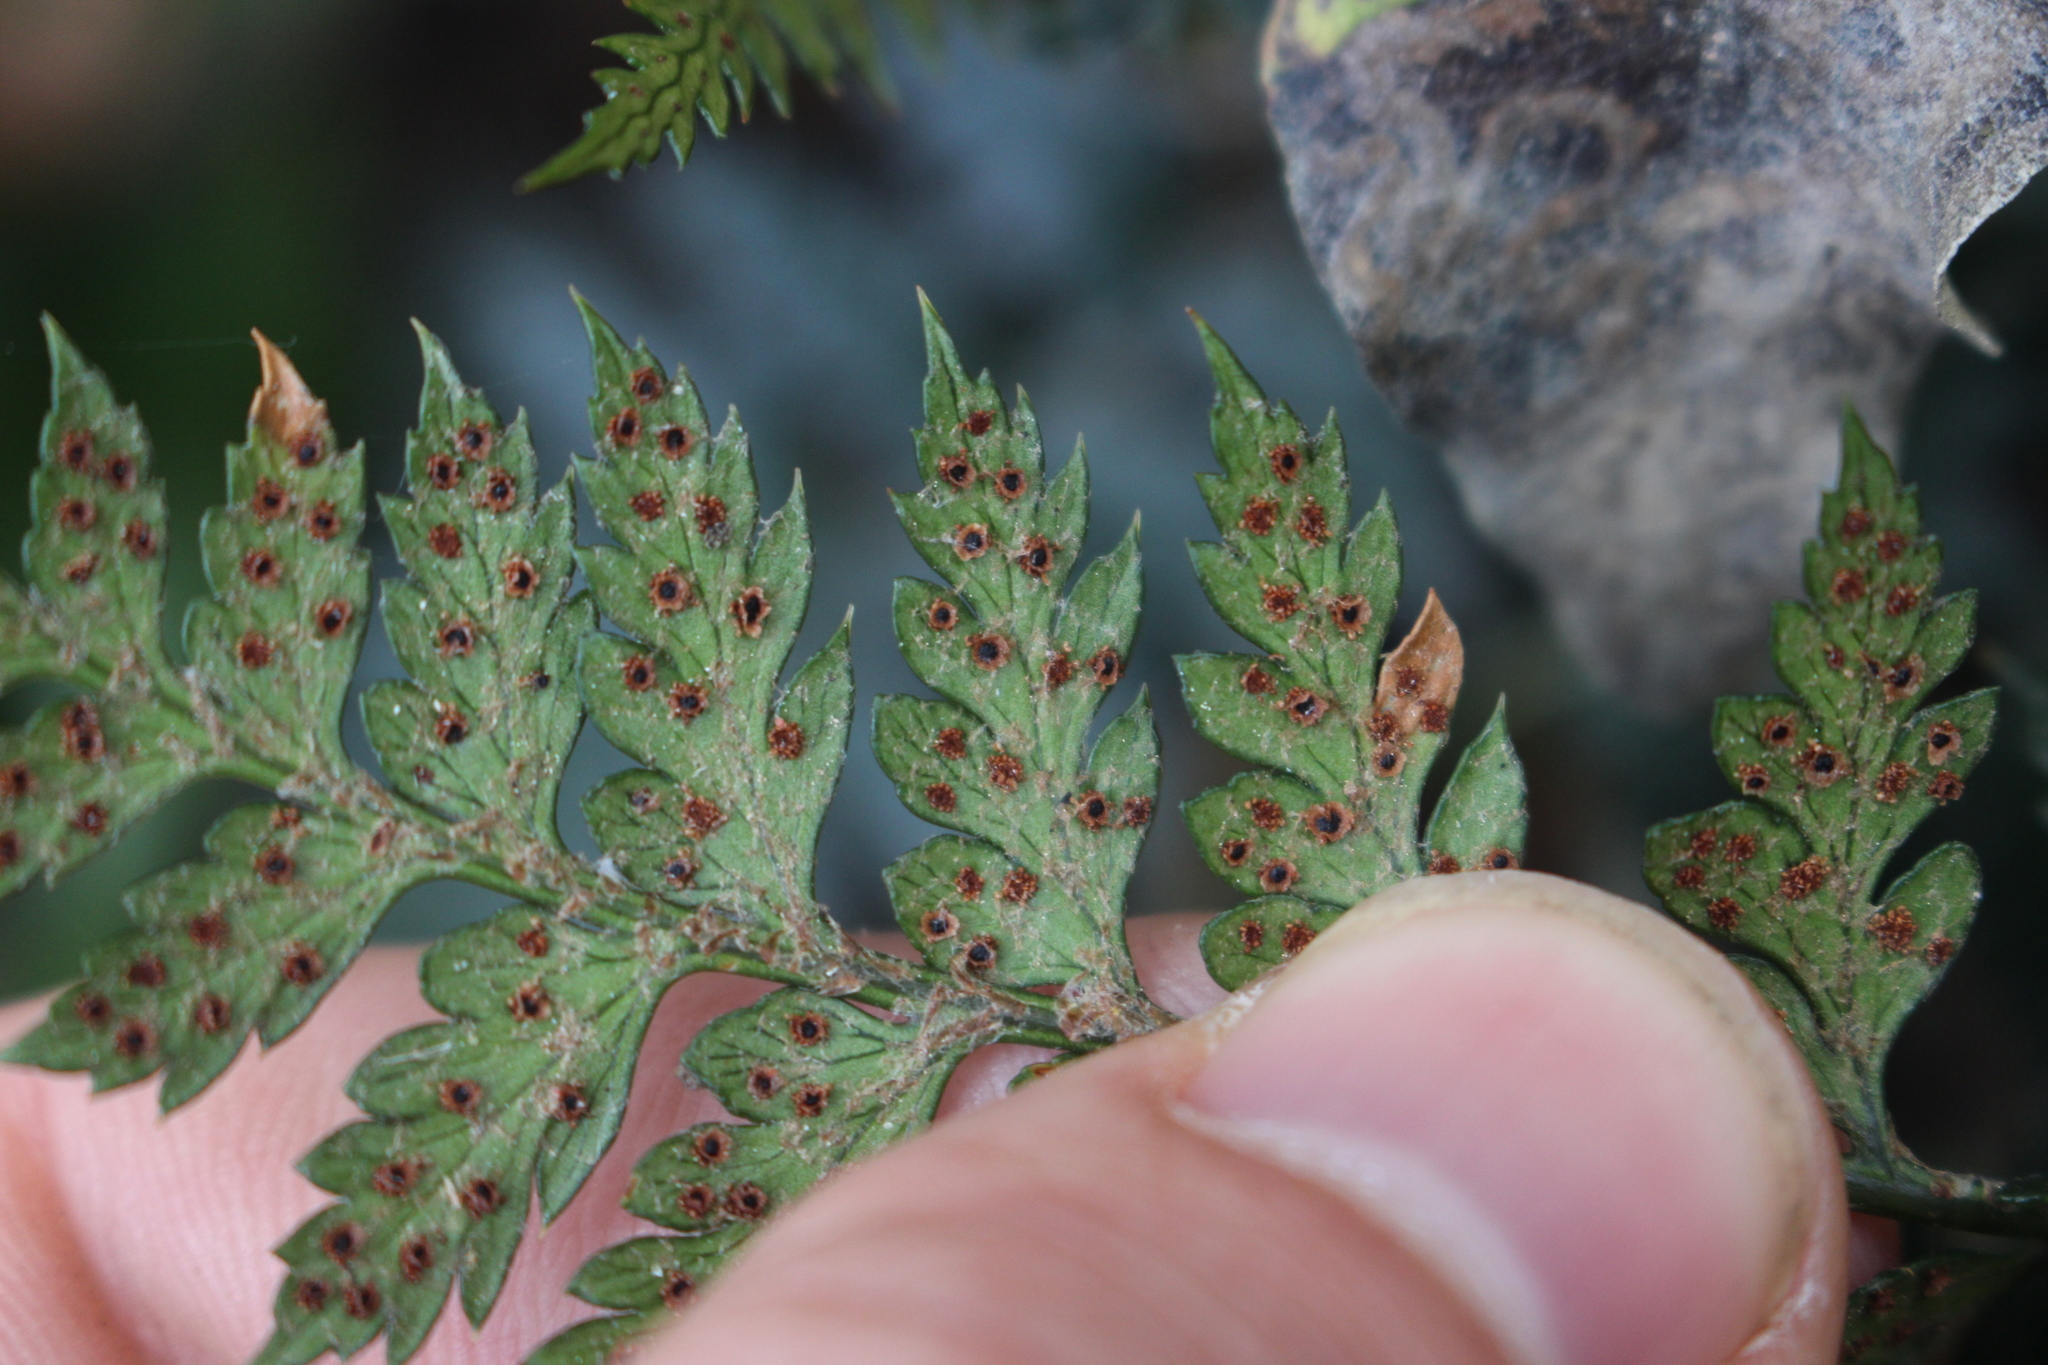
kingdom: Plantae
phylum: Tracheophyta
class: Polypodiopsida
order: Polypodiales
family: Dryopteridaceae
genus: Polystichum
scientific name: Polystichum oculatum
